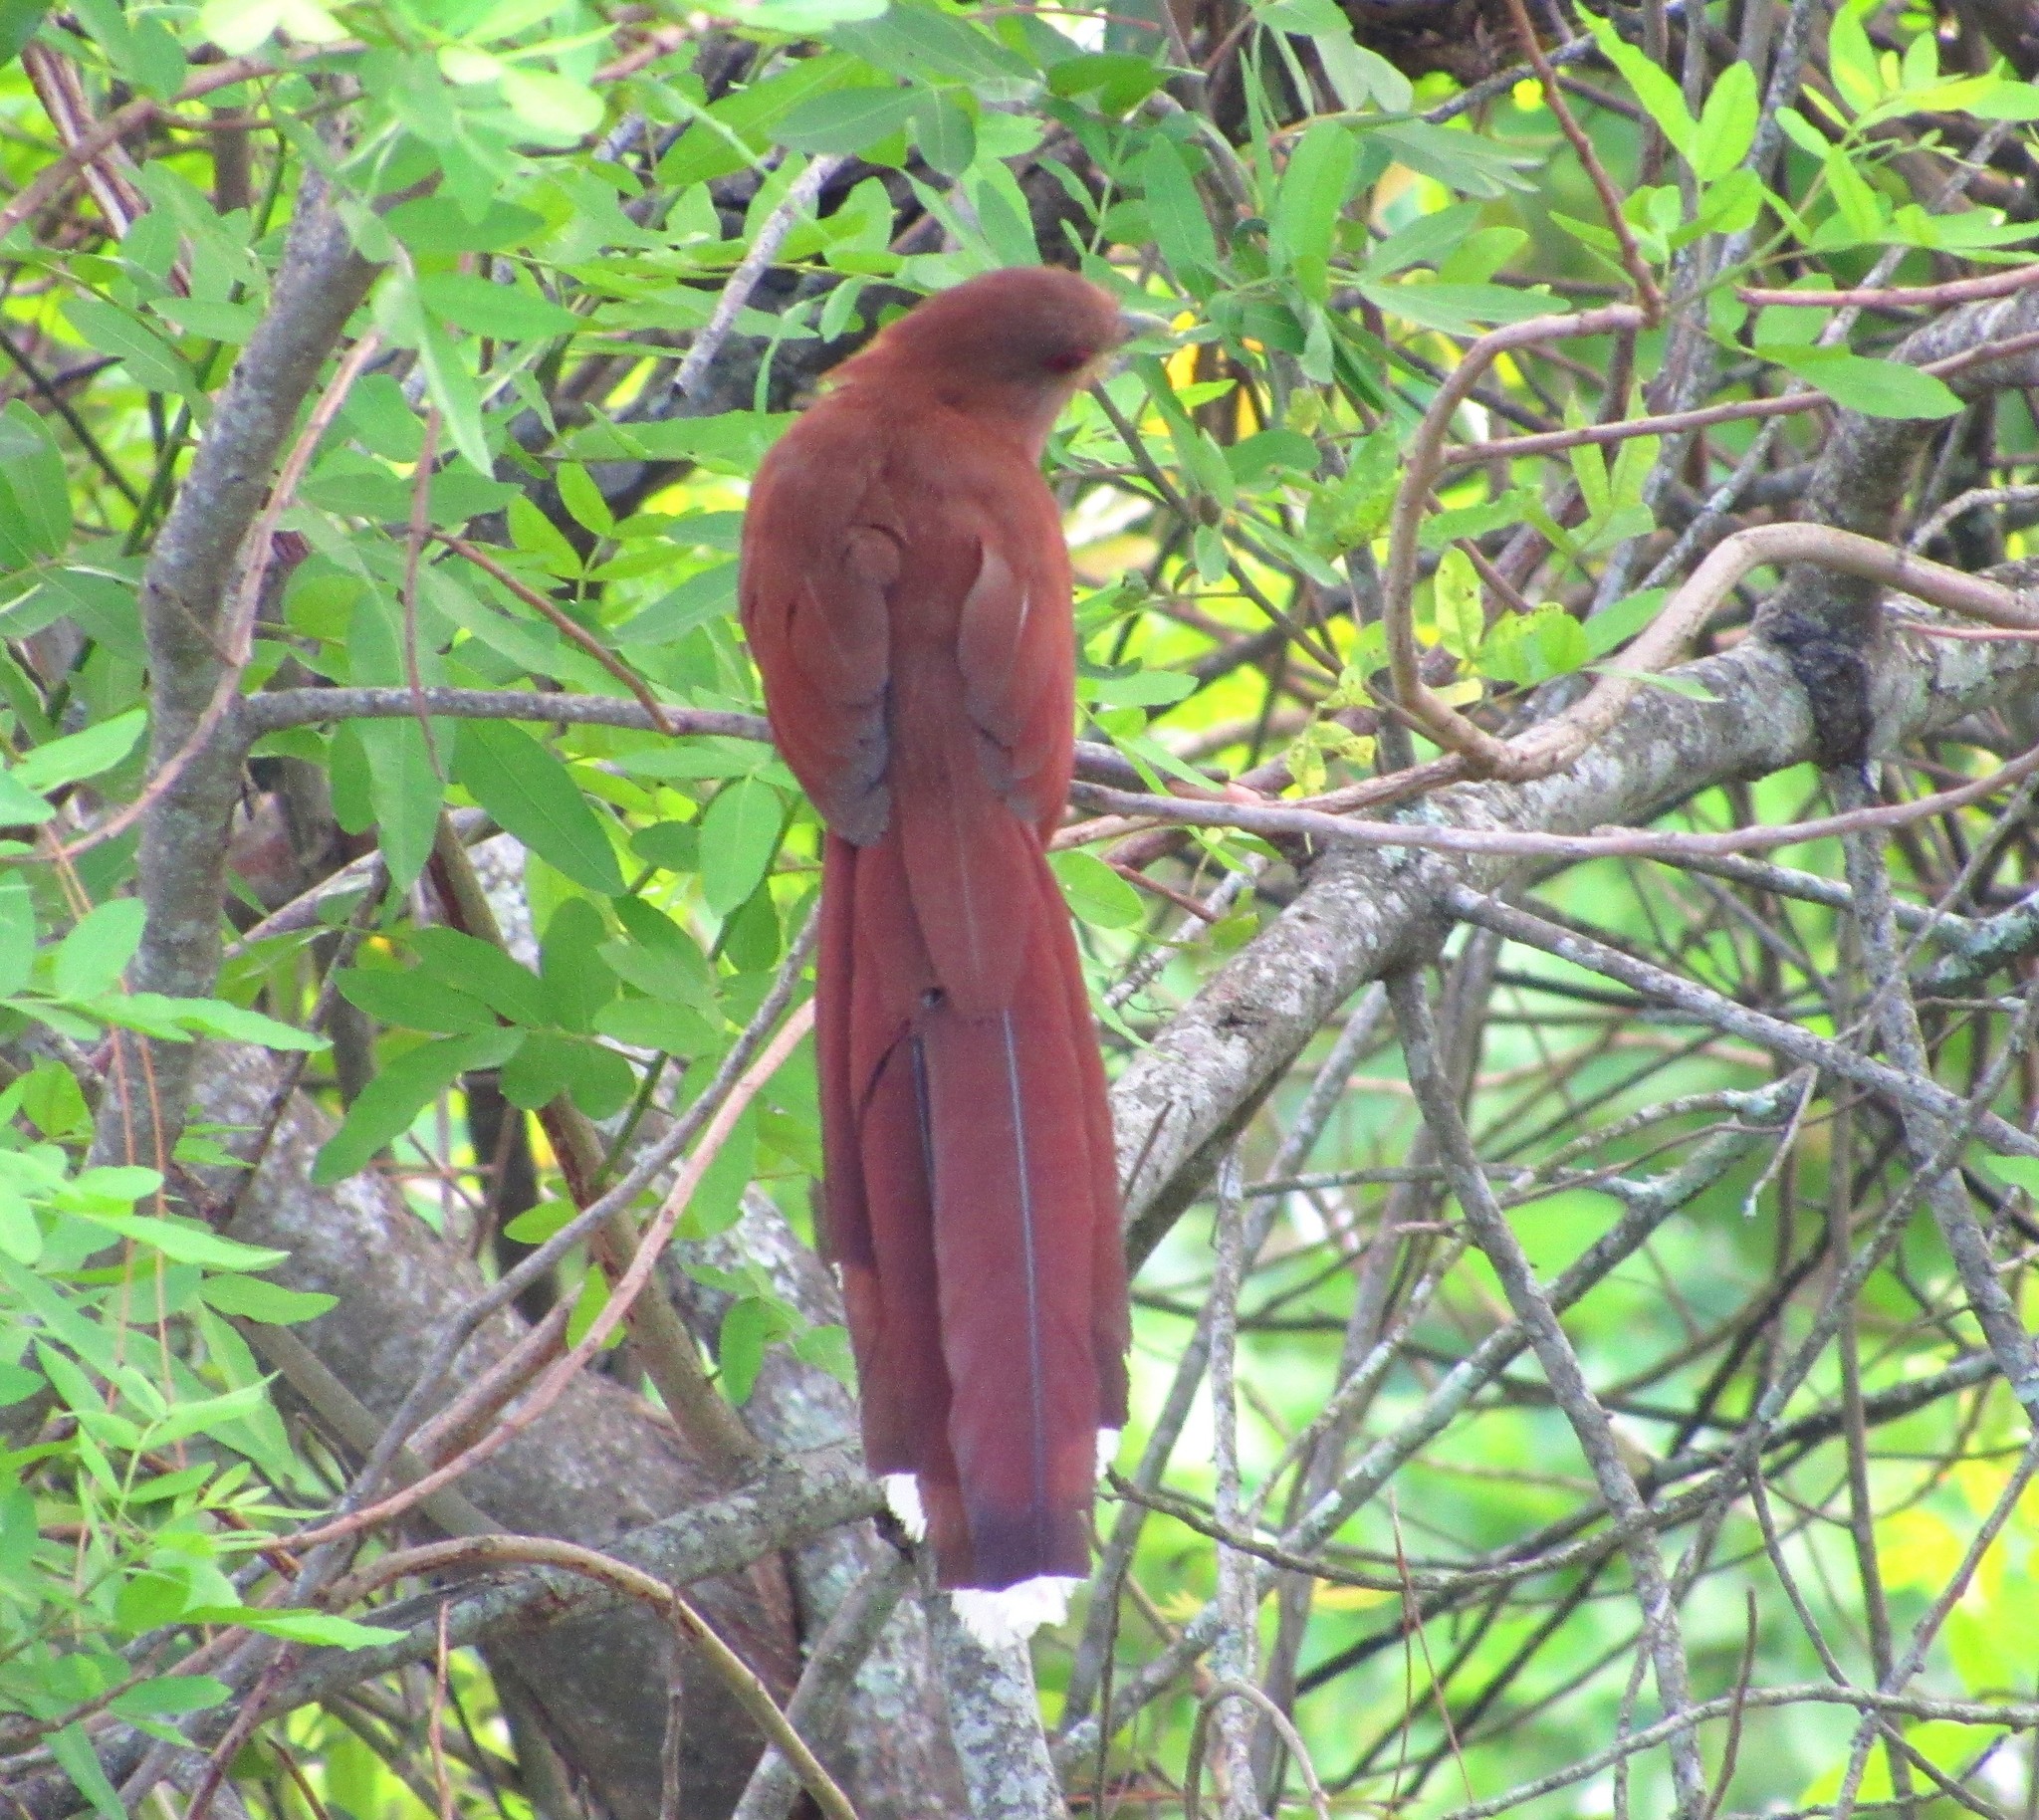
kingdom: Animalia
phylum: Chordata
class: Aves
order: Cuculiformes
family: Cuculidae
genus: Piaya
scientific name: Piaya cayana
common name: Squirrel cuckoo
